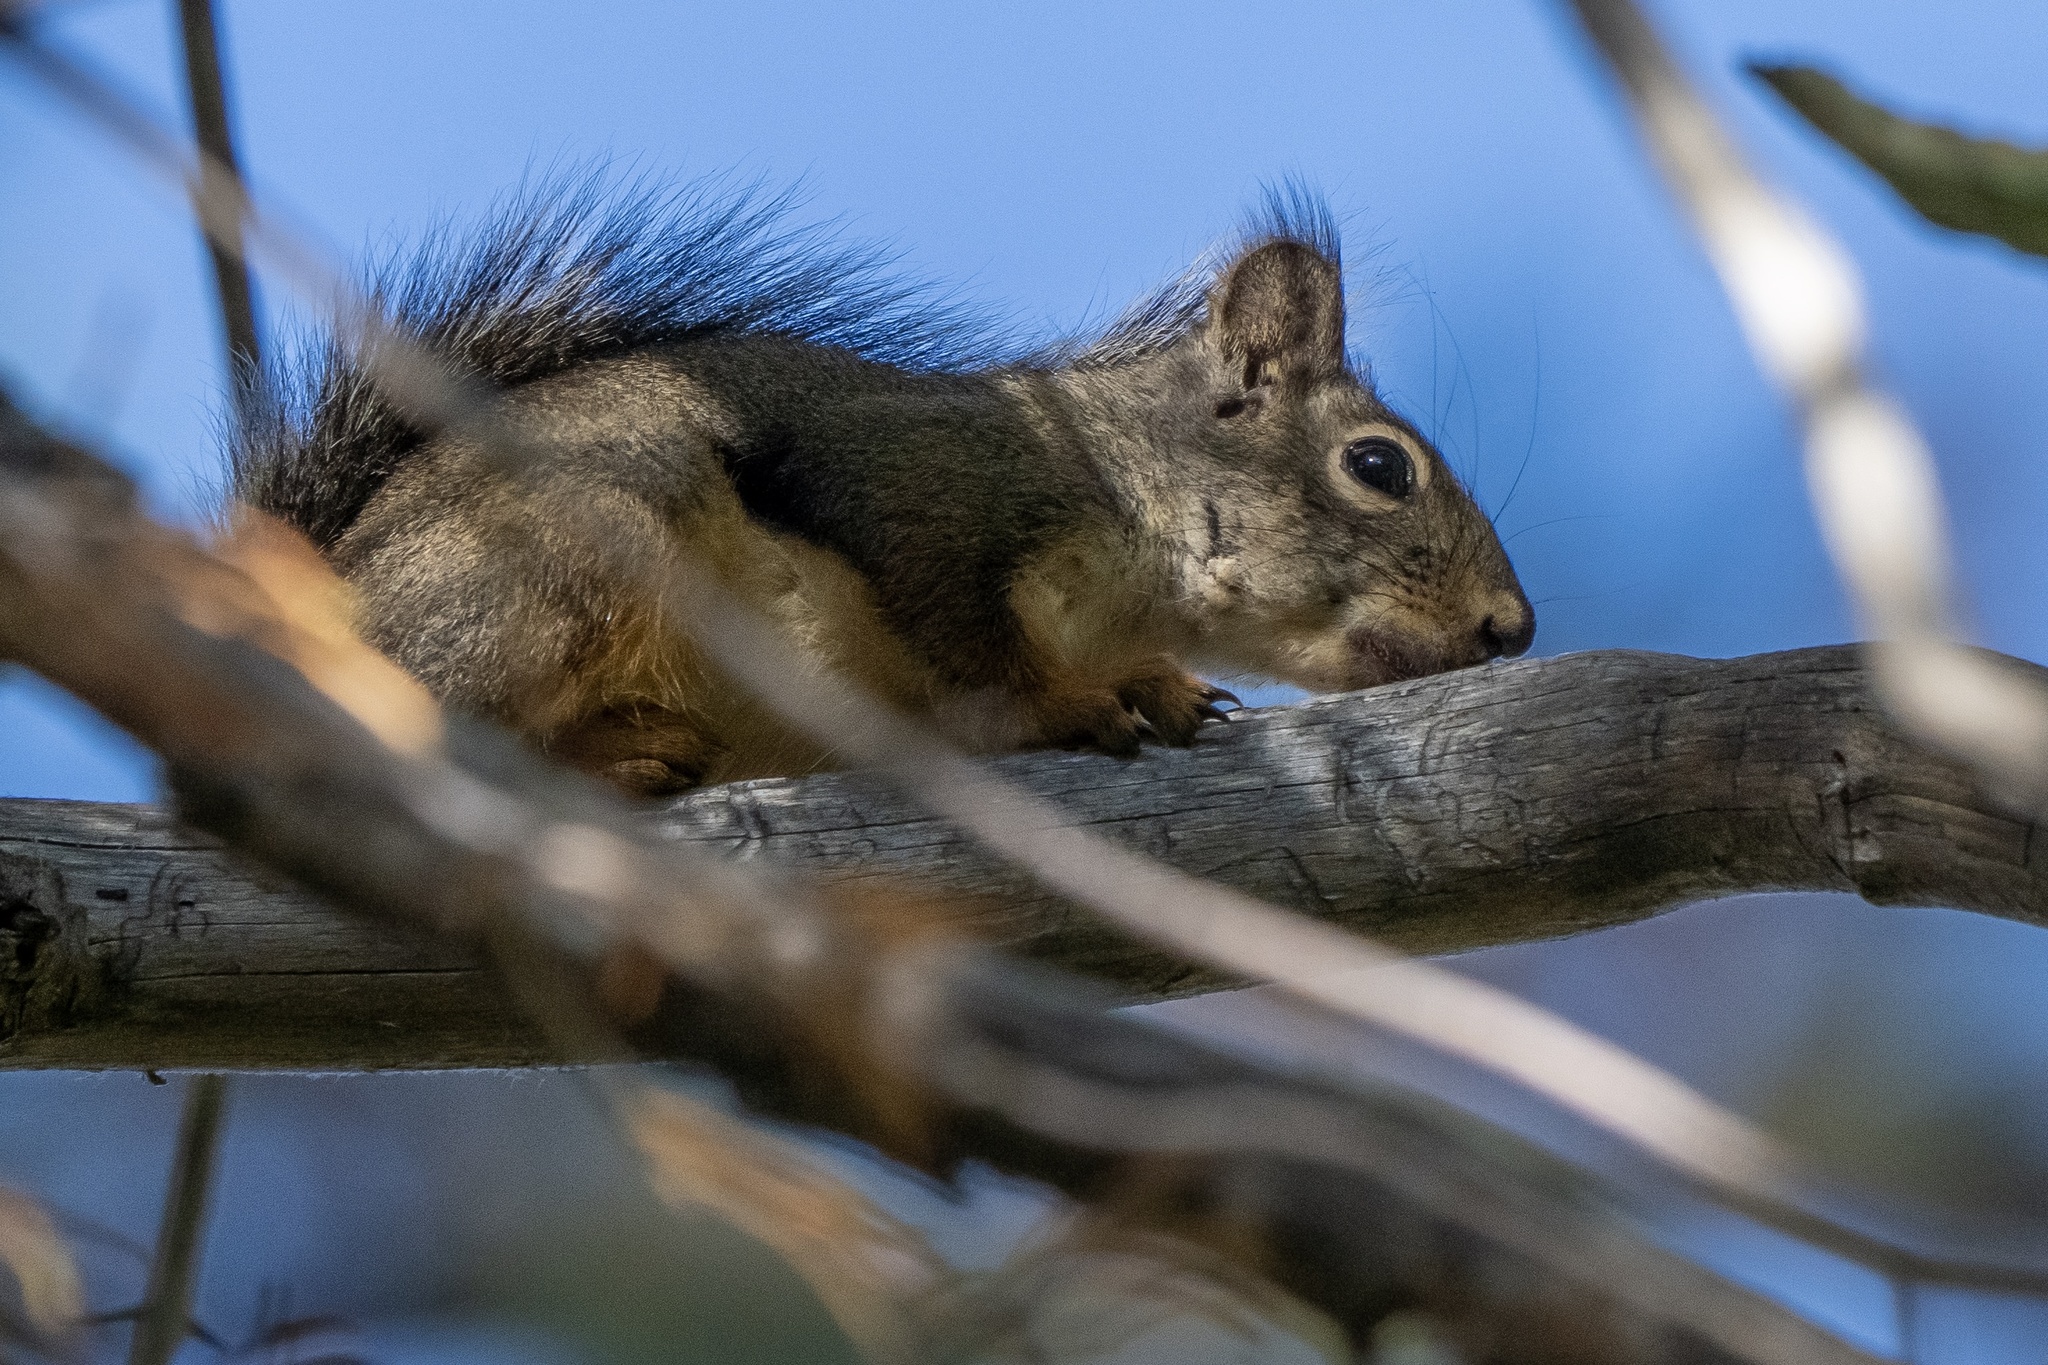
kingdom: Animalia
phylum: Chordata
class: Mammalia
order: Rodentia
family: Sciuridae
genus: Tamiasciurus
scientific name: Tamiasciurus douglasii
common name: Douglas's squirrel
